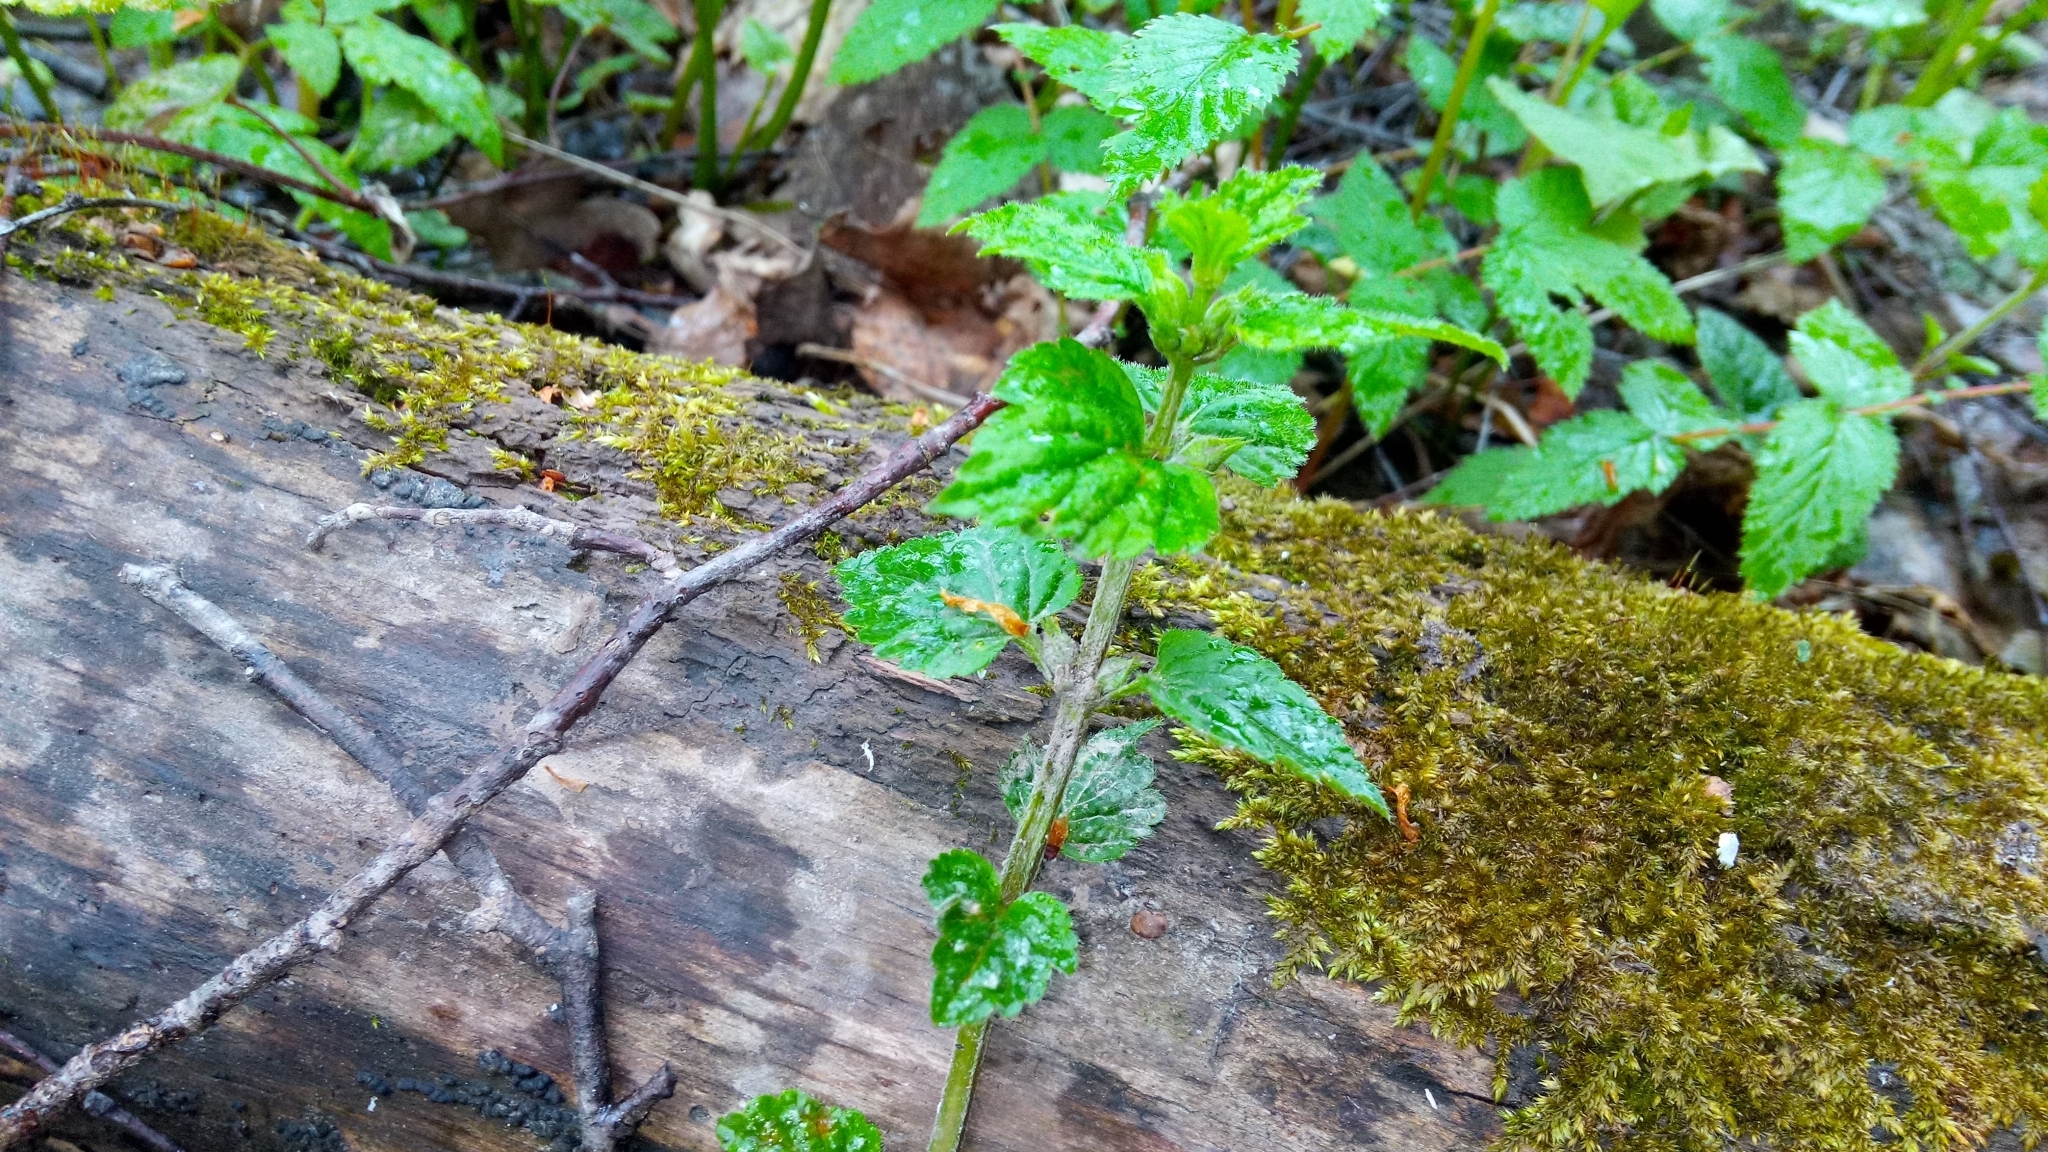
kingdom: Plantae
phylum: Tracheophyta
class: Magnoliopsida
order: Lamiales
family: Lamiaceae
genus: Lamium
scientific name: Lamium galeobdolon
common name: Yellow archangel
